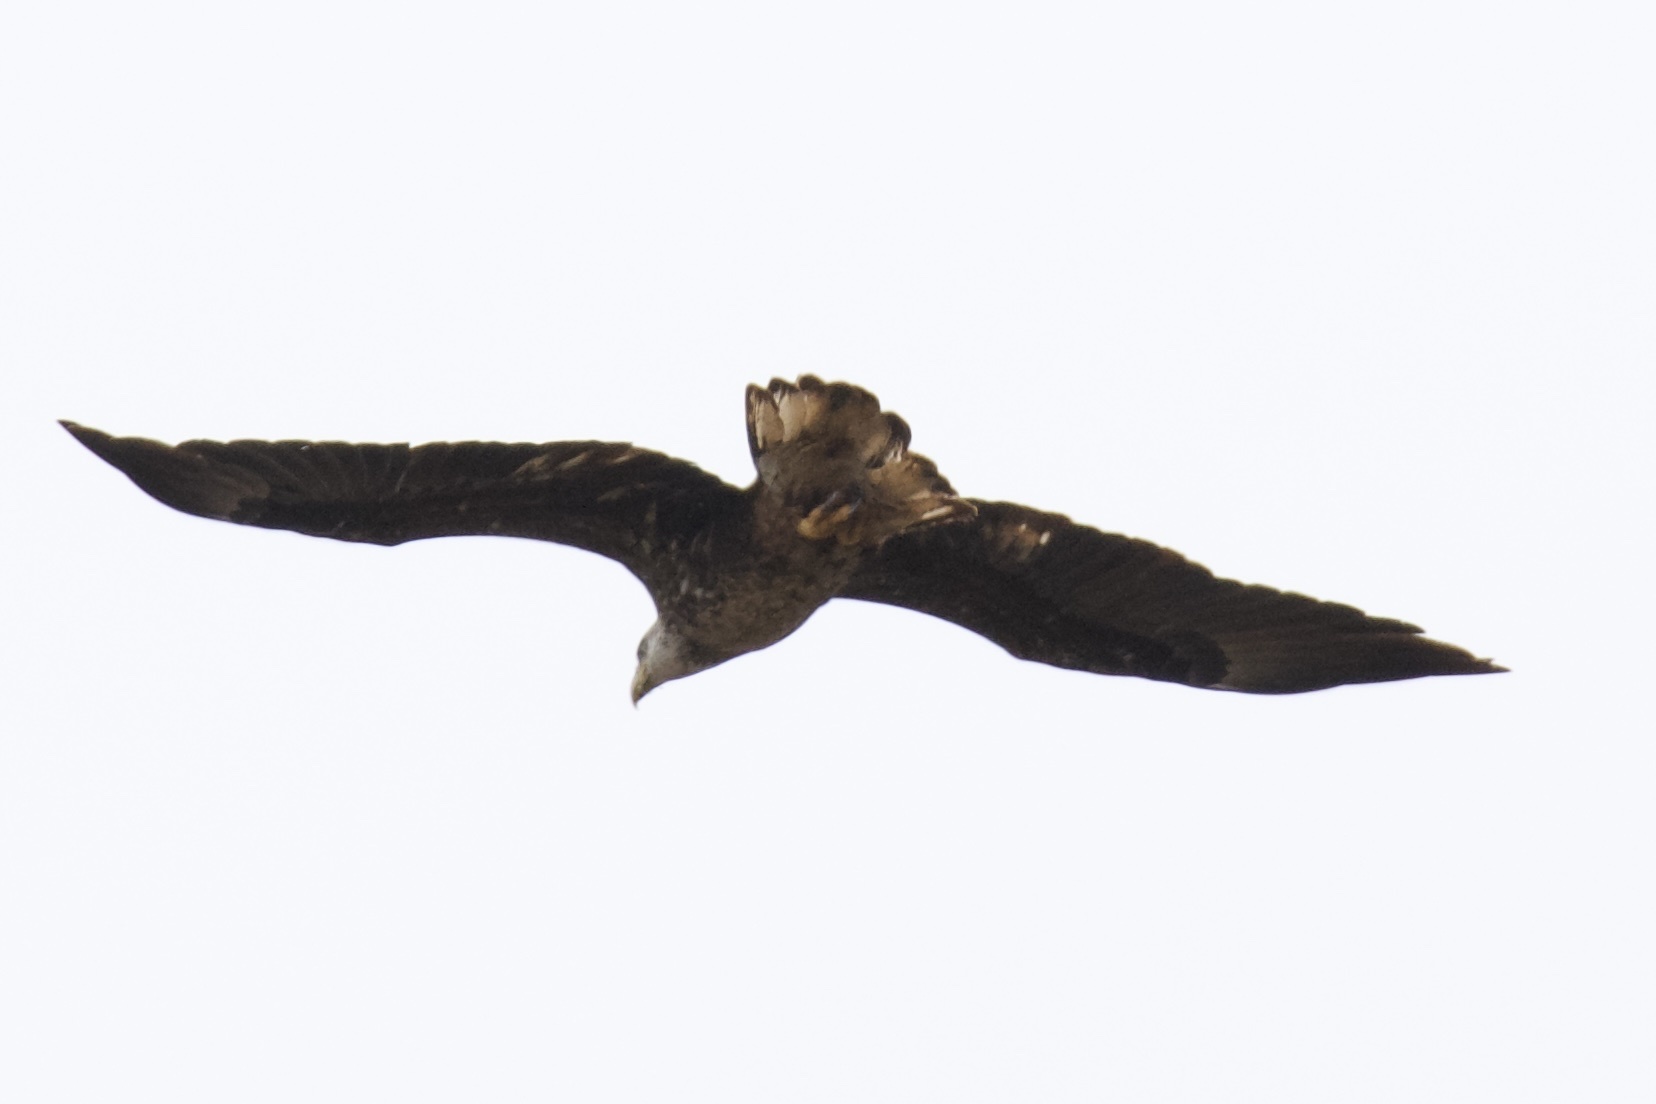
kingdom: Animalia
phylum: Chordata
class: Aves
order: Accipitriformes
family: Accipitridae
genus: Haliaeetus
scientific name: Haliaeetus leucocephalus
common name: Bald eagle
